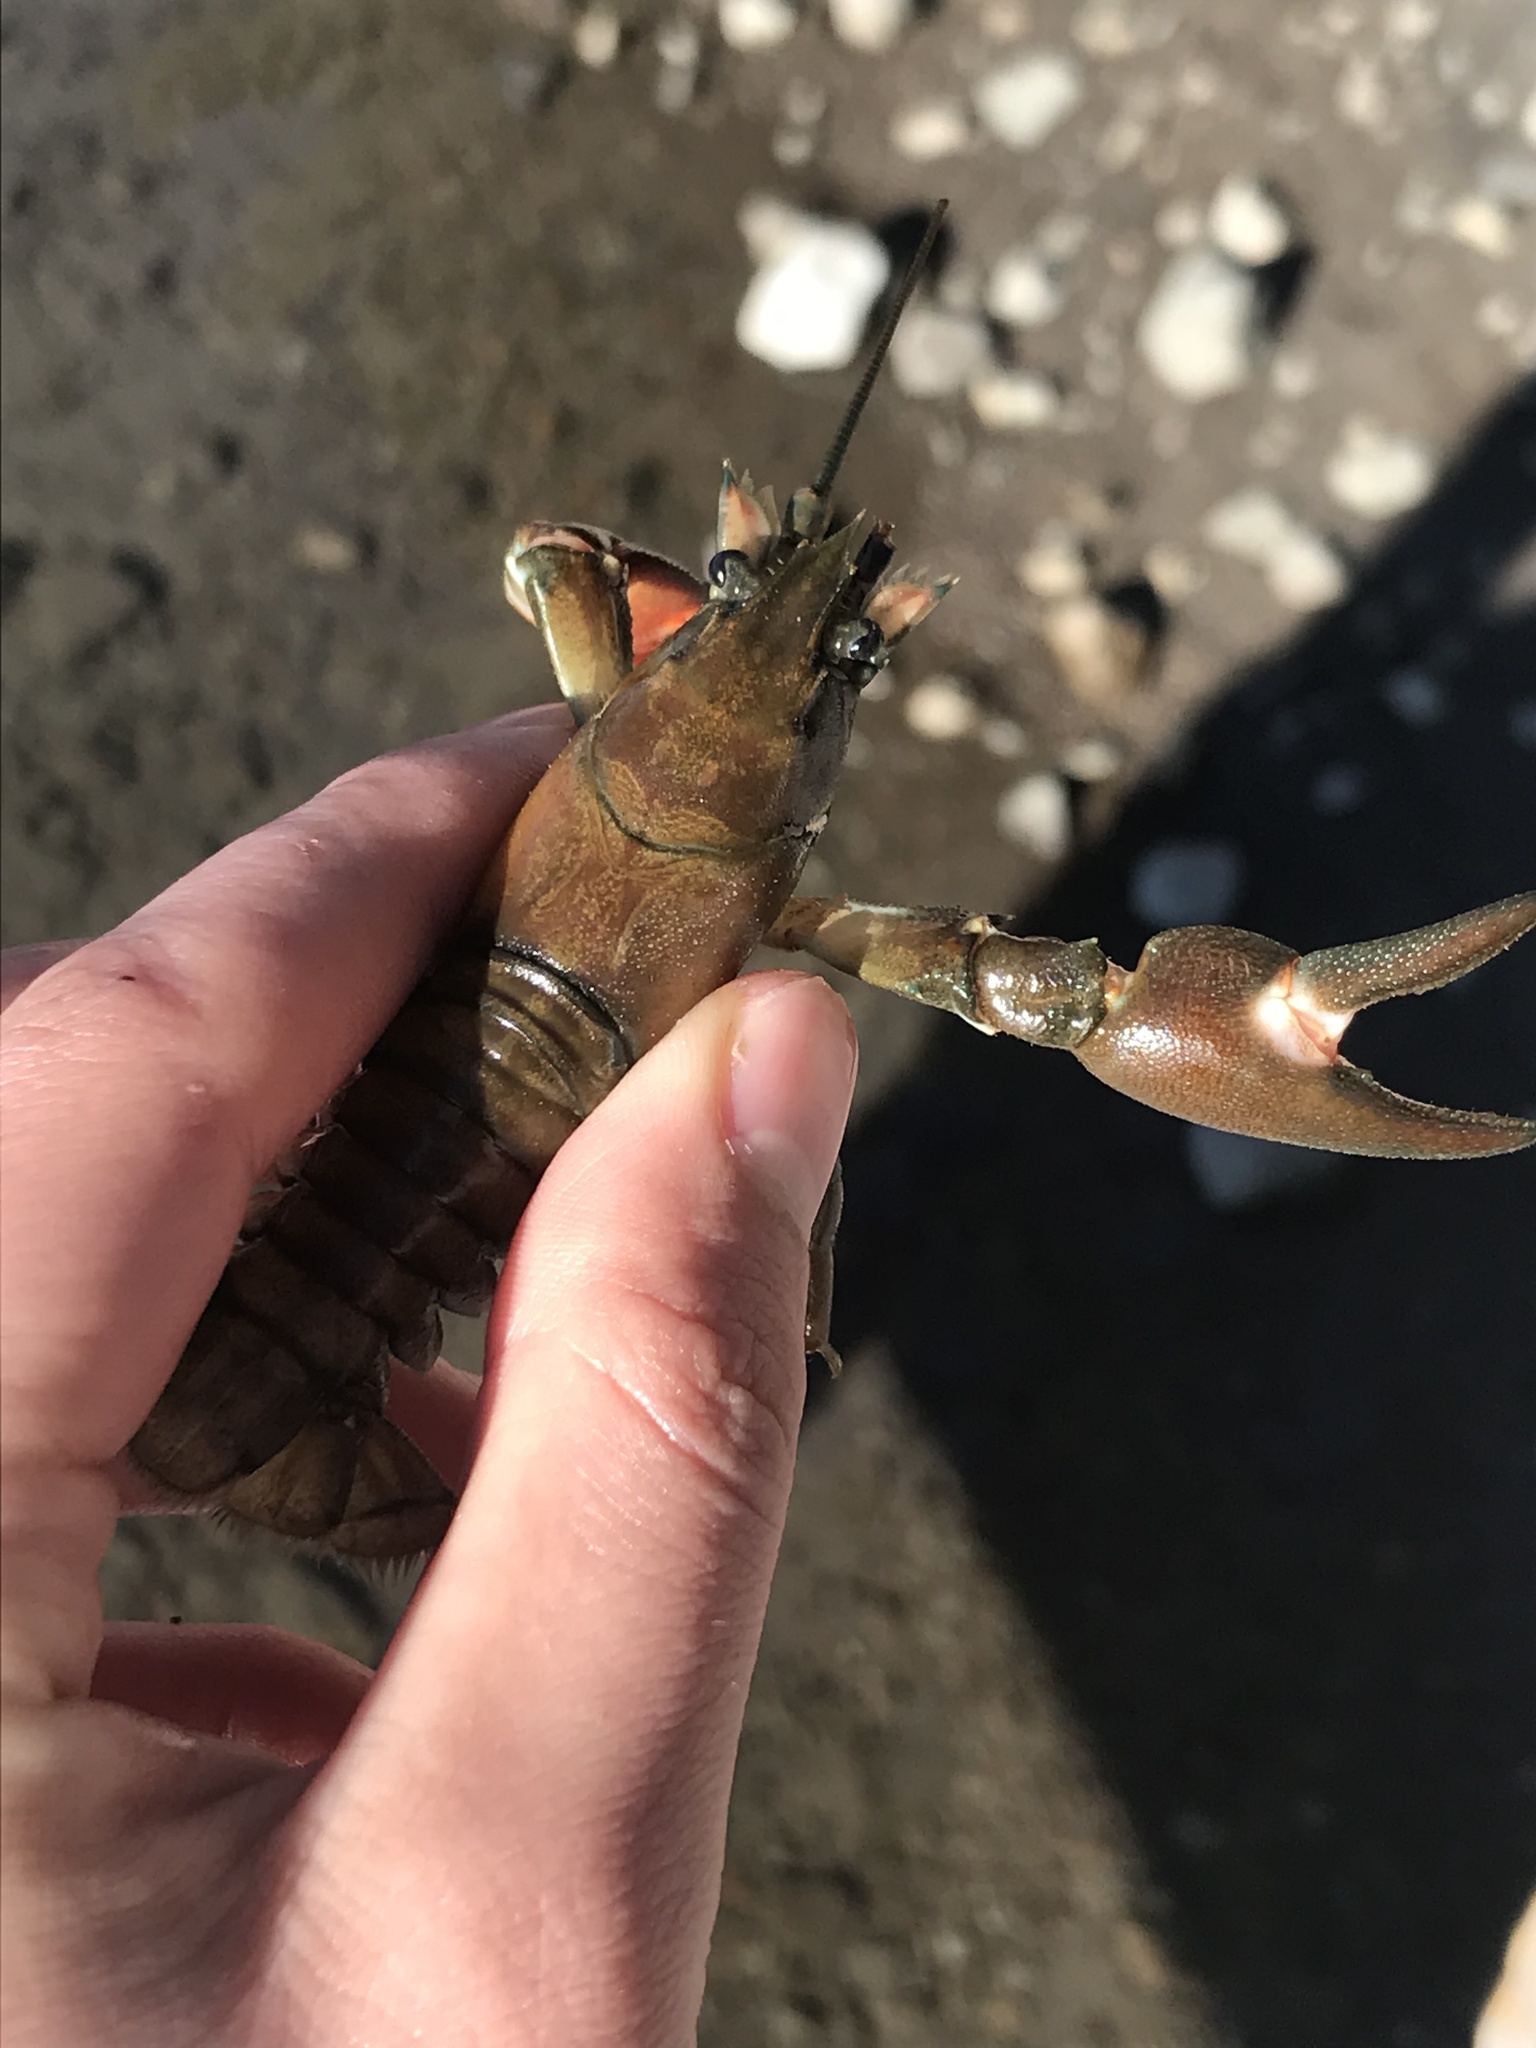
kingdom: Animalia
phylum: Arthropoda
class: Malacostraca
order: Decapoda
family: Astacidae
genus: Pacifastacus
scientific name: Pacifastacus leniusculus
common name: Signal crayfish
